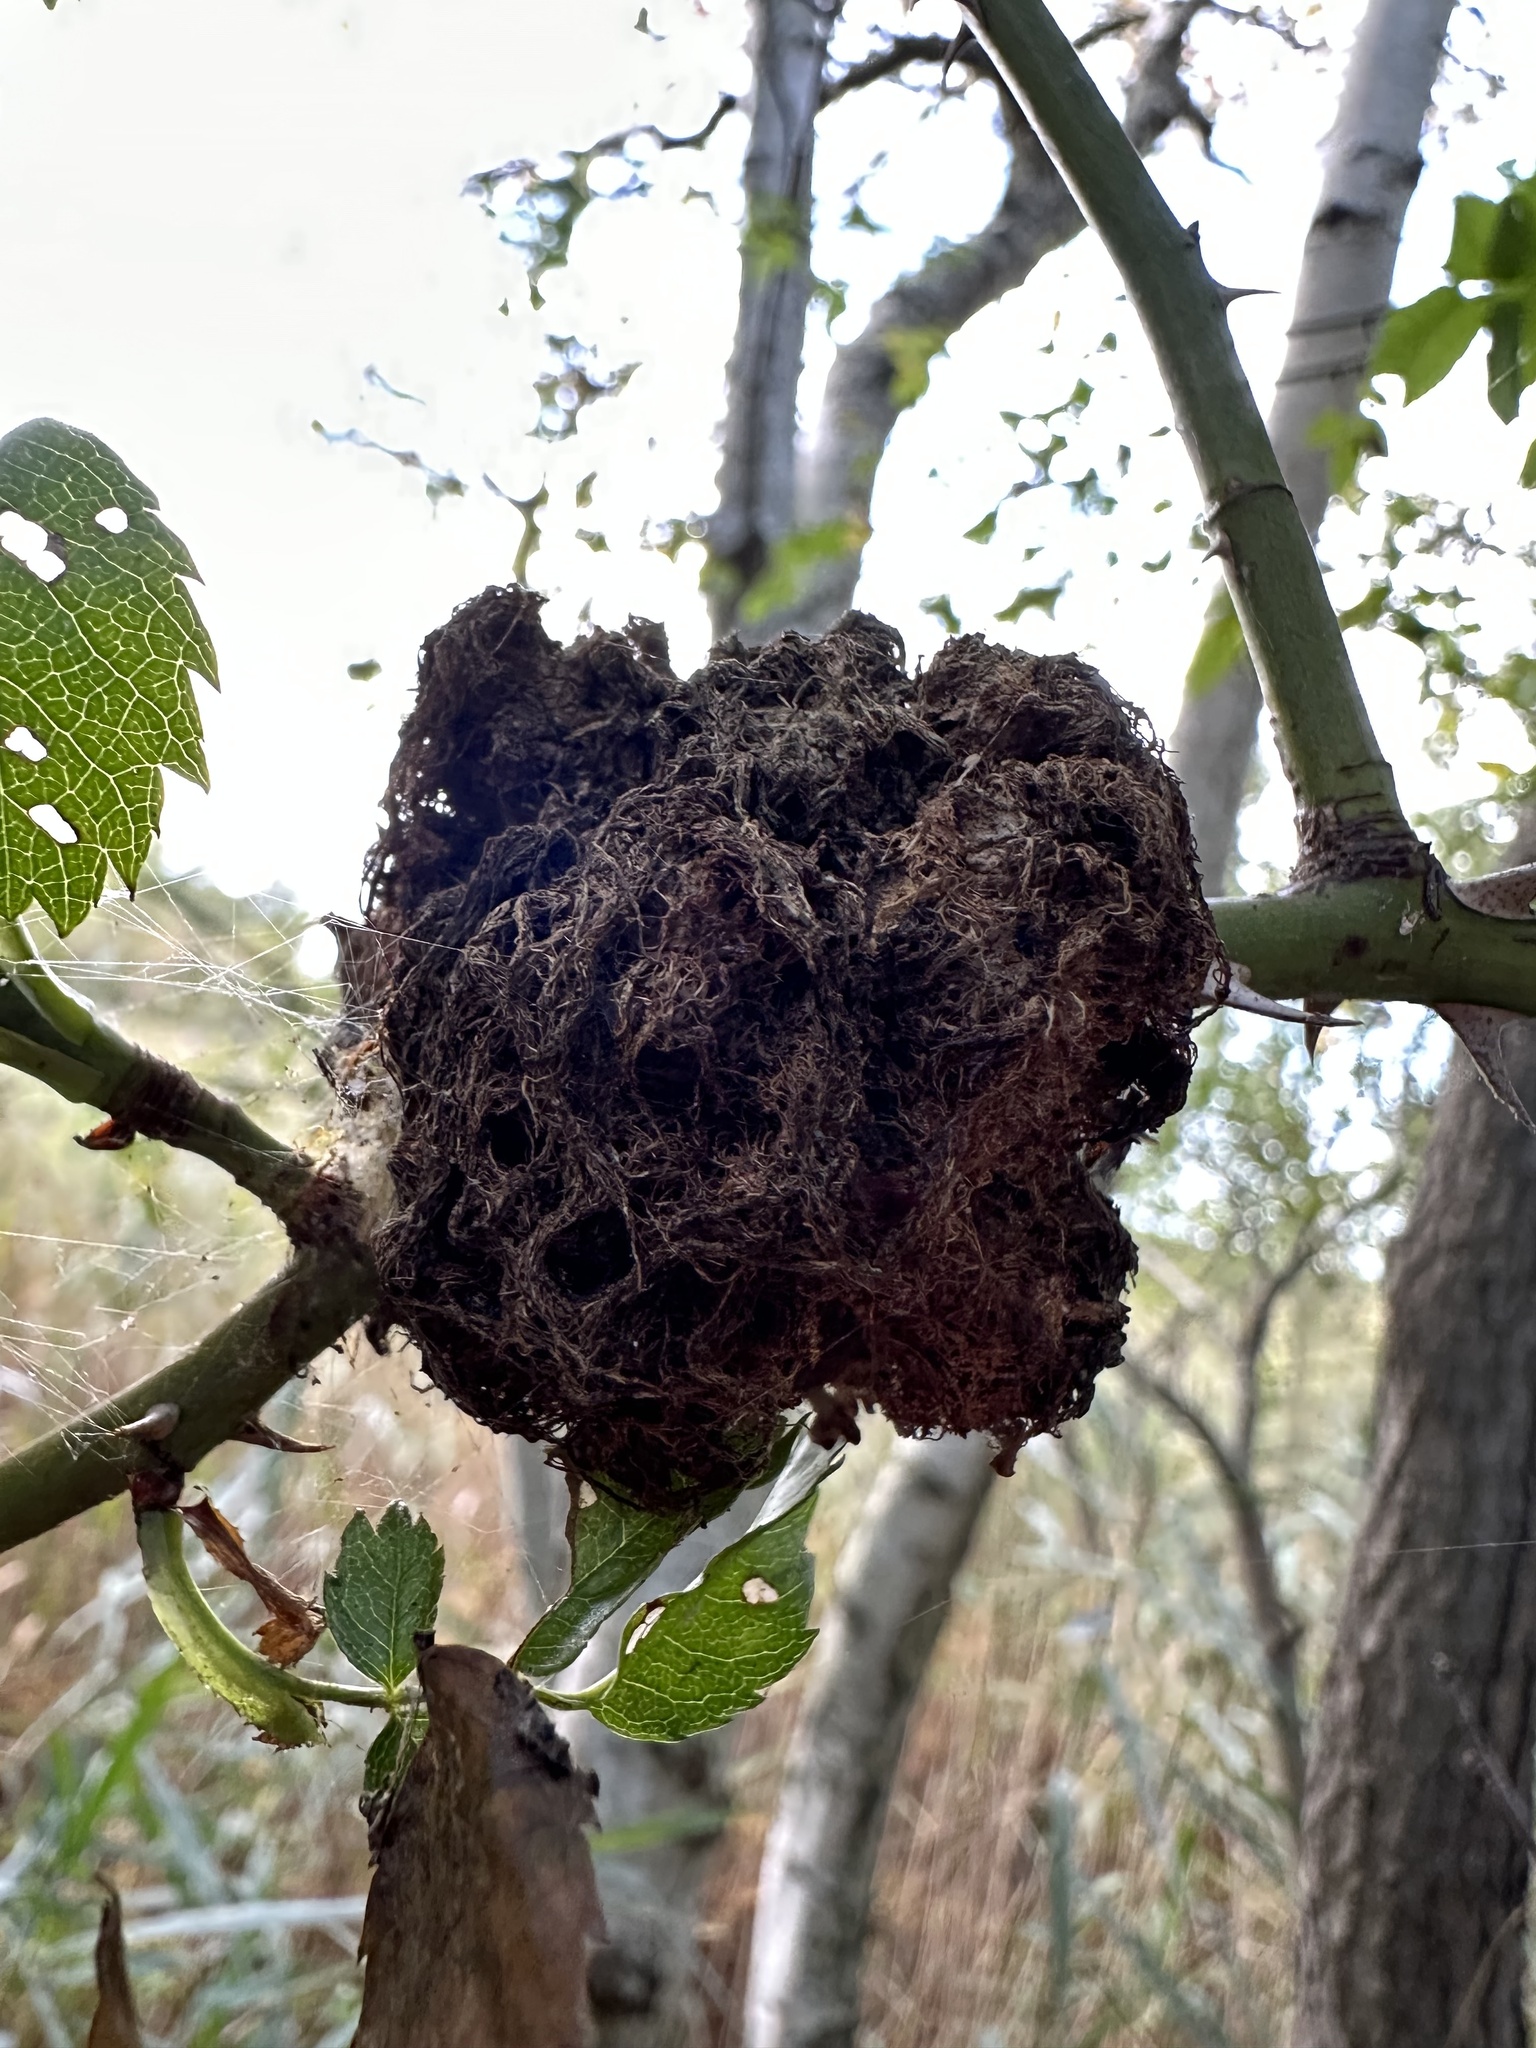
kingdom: Animalia
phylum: Arthropoda
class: Insecta
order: Hymenoptera
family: Cynipidae
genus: Diplolepis
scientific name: Diplolepis rosae
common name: Bedeguar gall
